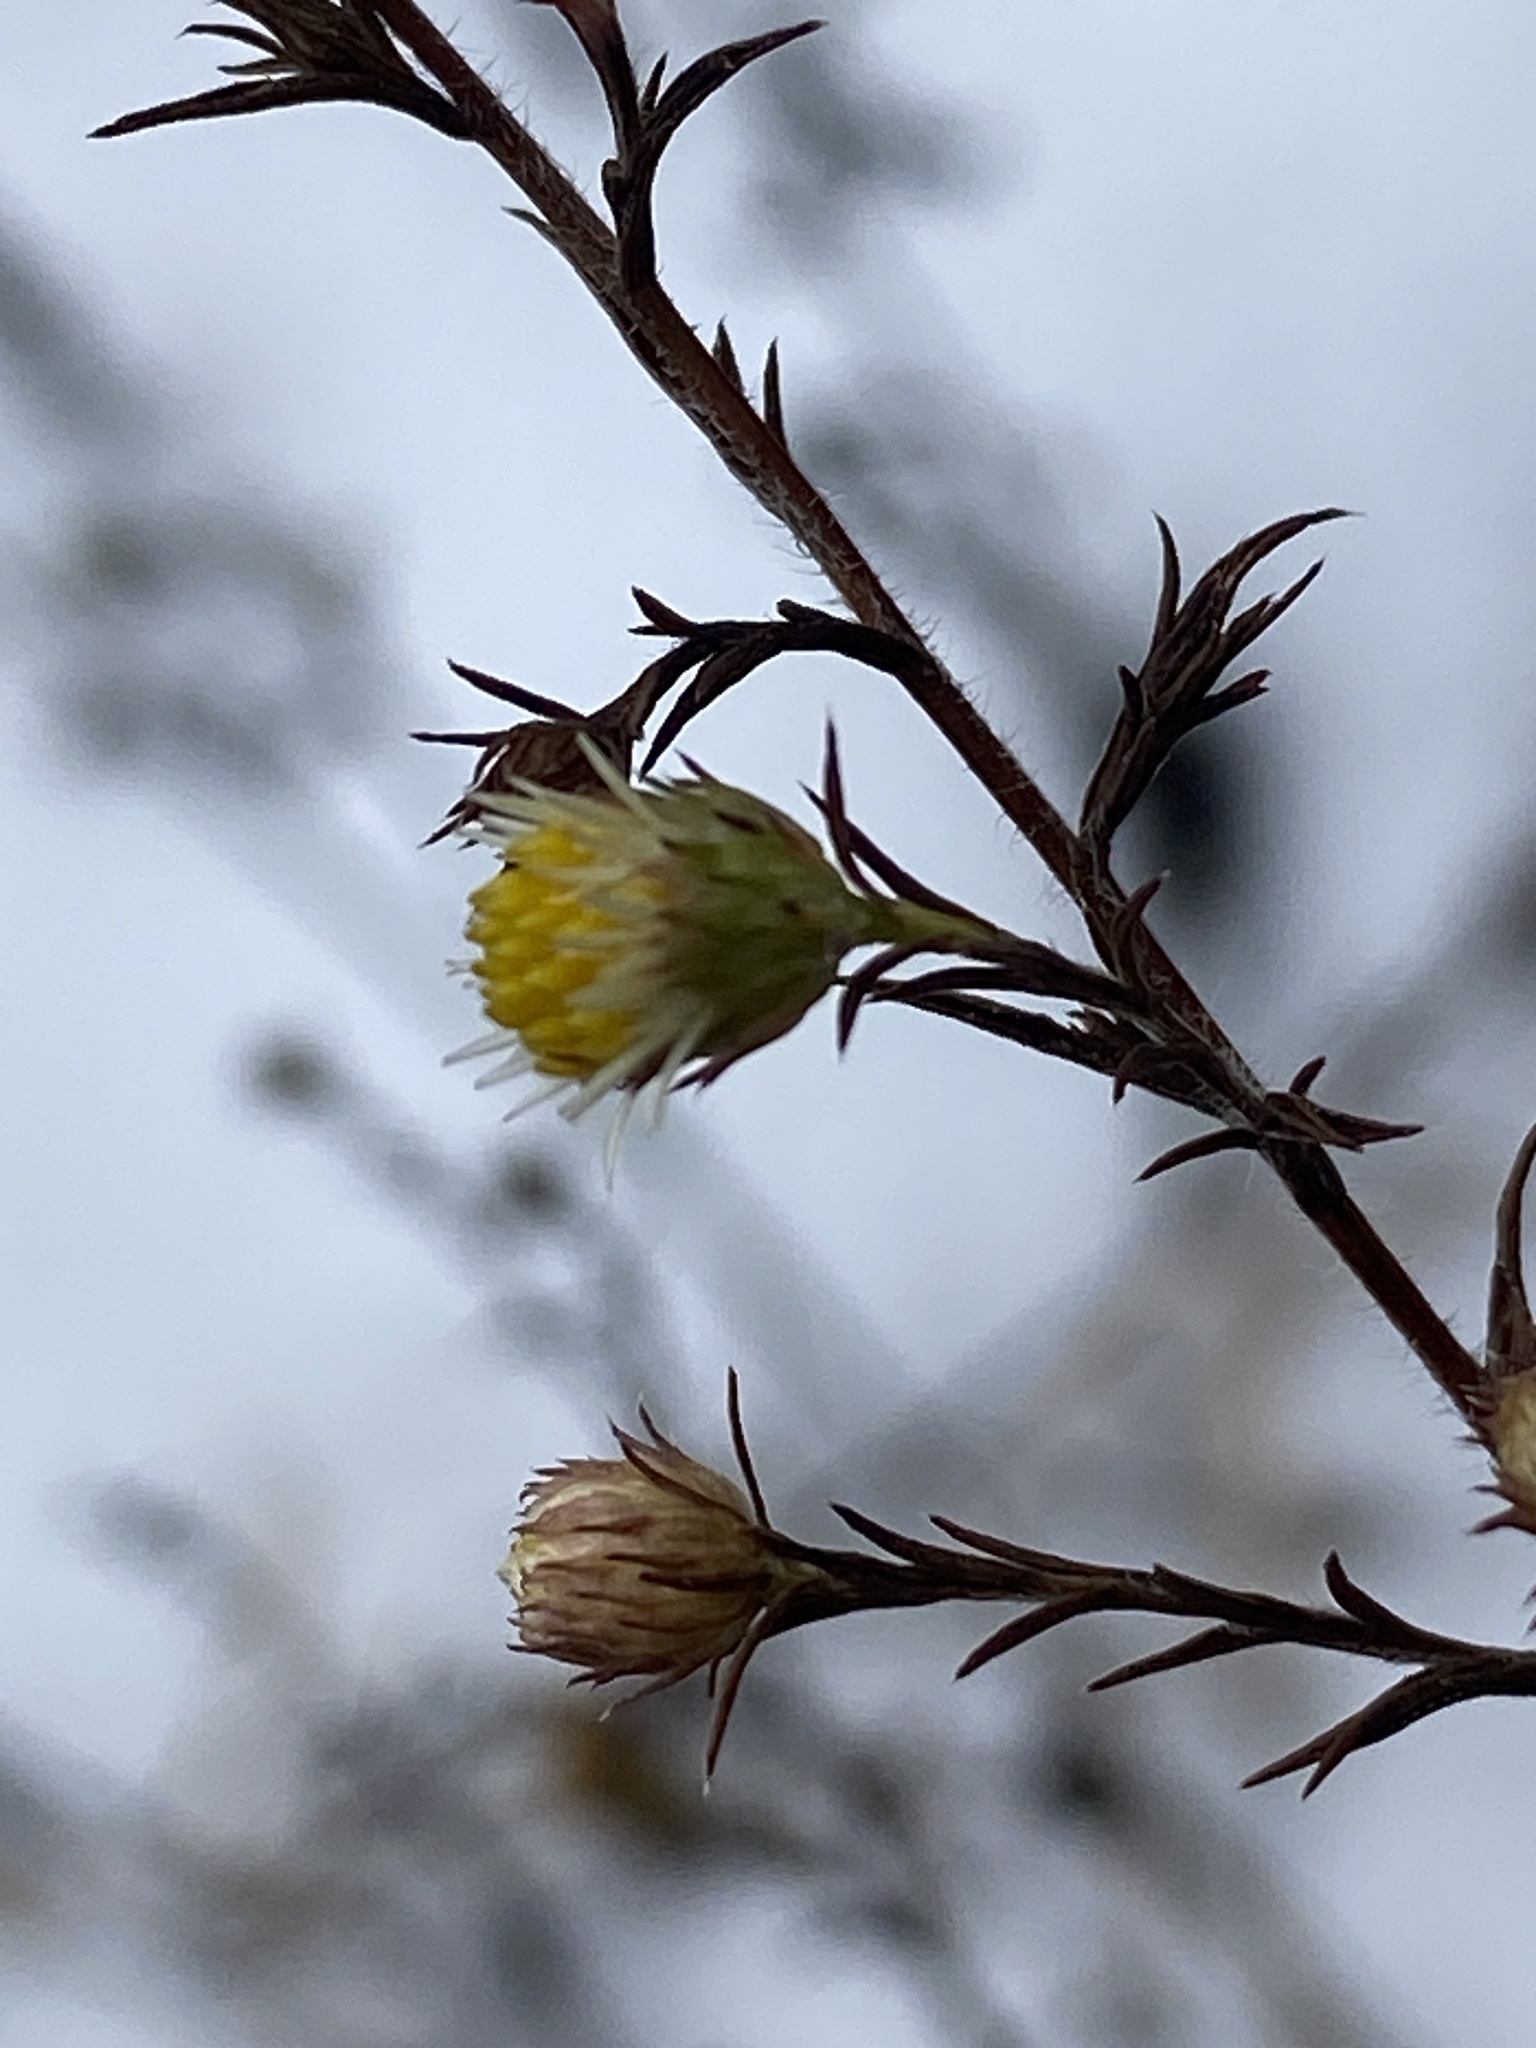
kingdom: Plantae
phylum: Tracheophyta
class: Magnoliopsida
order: Asterales
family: Asteraceae
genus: Symphyotrichum
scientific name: Symphyotrichum pilosum
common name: Awl aster
